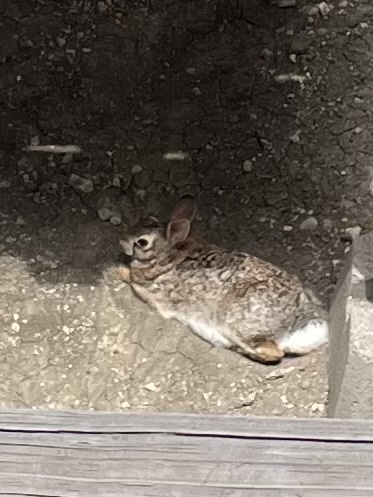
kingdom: Animalia
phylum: Chordata
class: Mammalia
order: Lagomorpha
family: Leporidae
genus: Sylvilagus
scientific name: Sylvilagus floridanus
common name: Eastern cottontail
